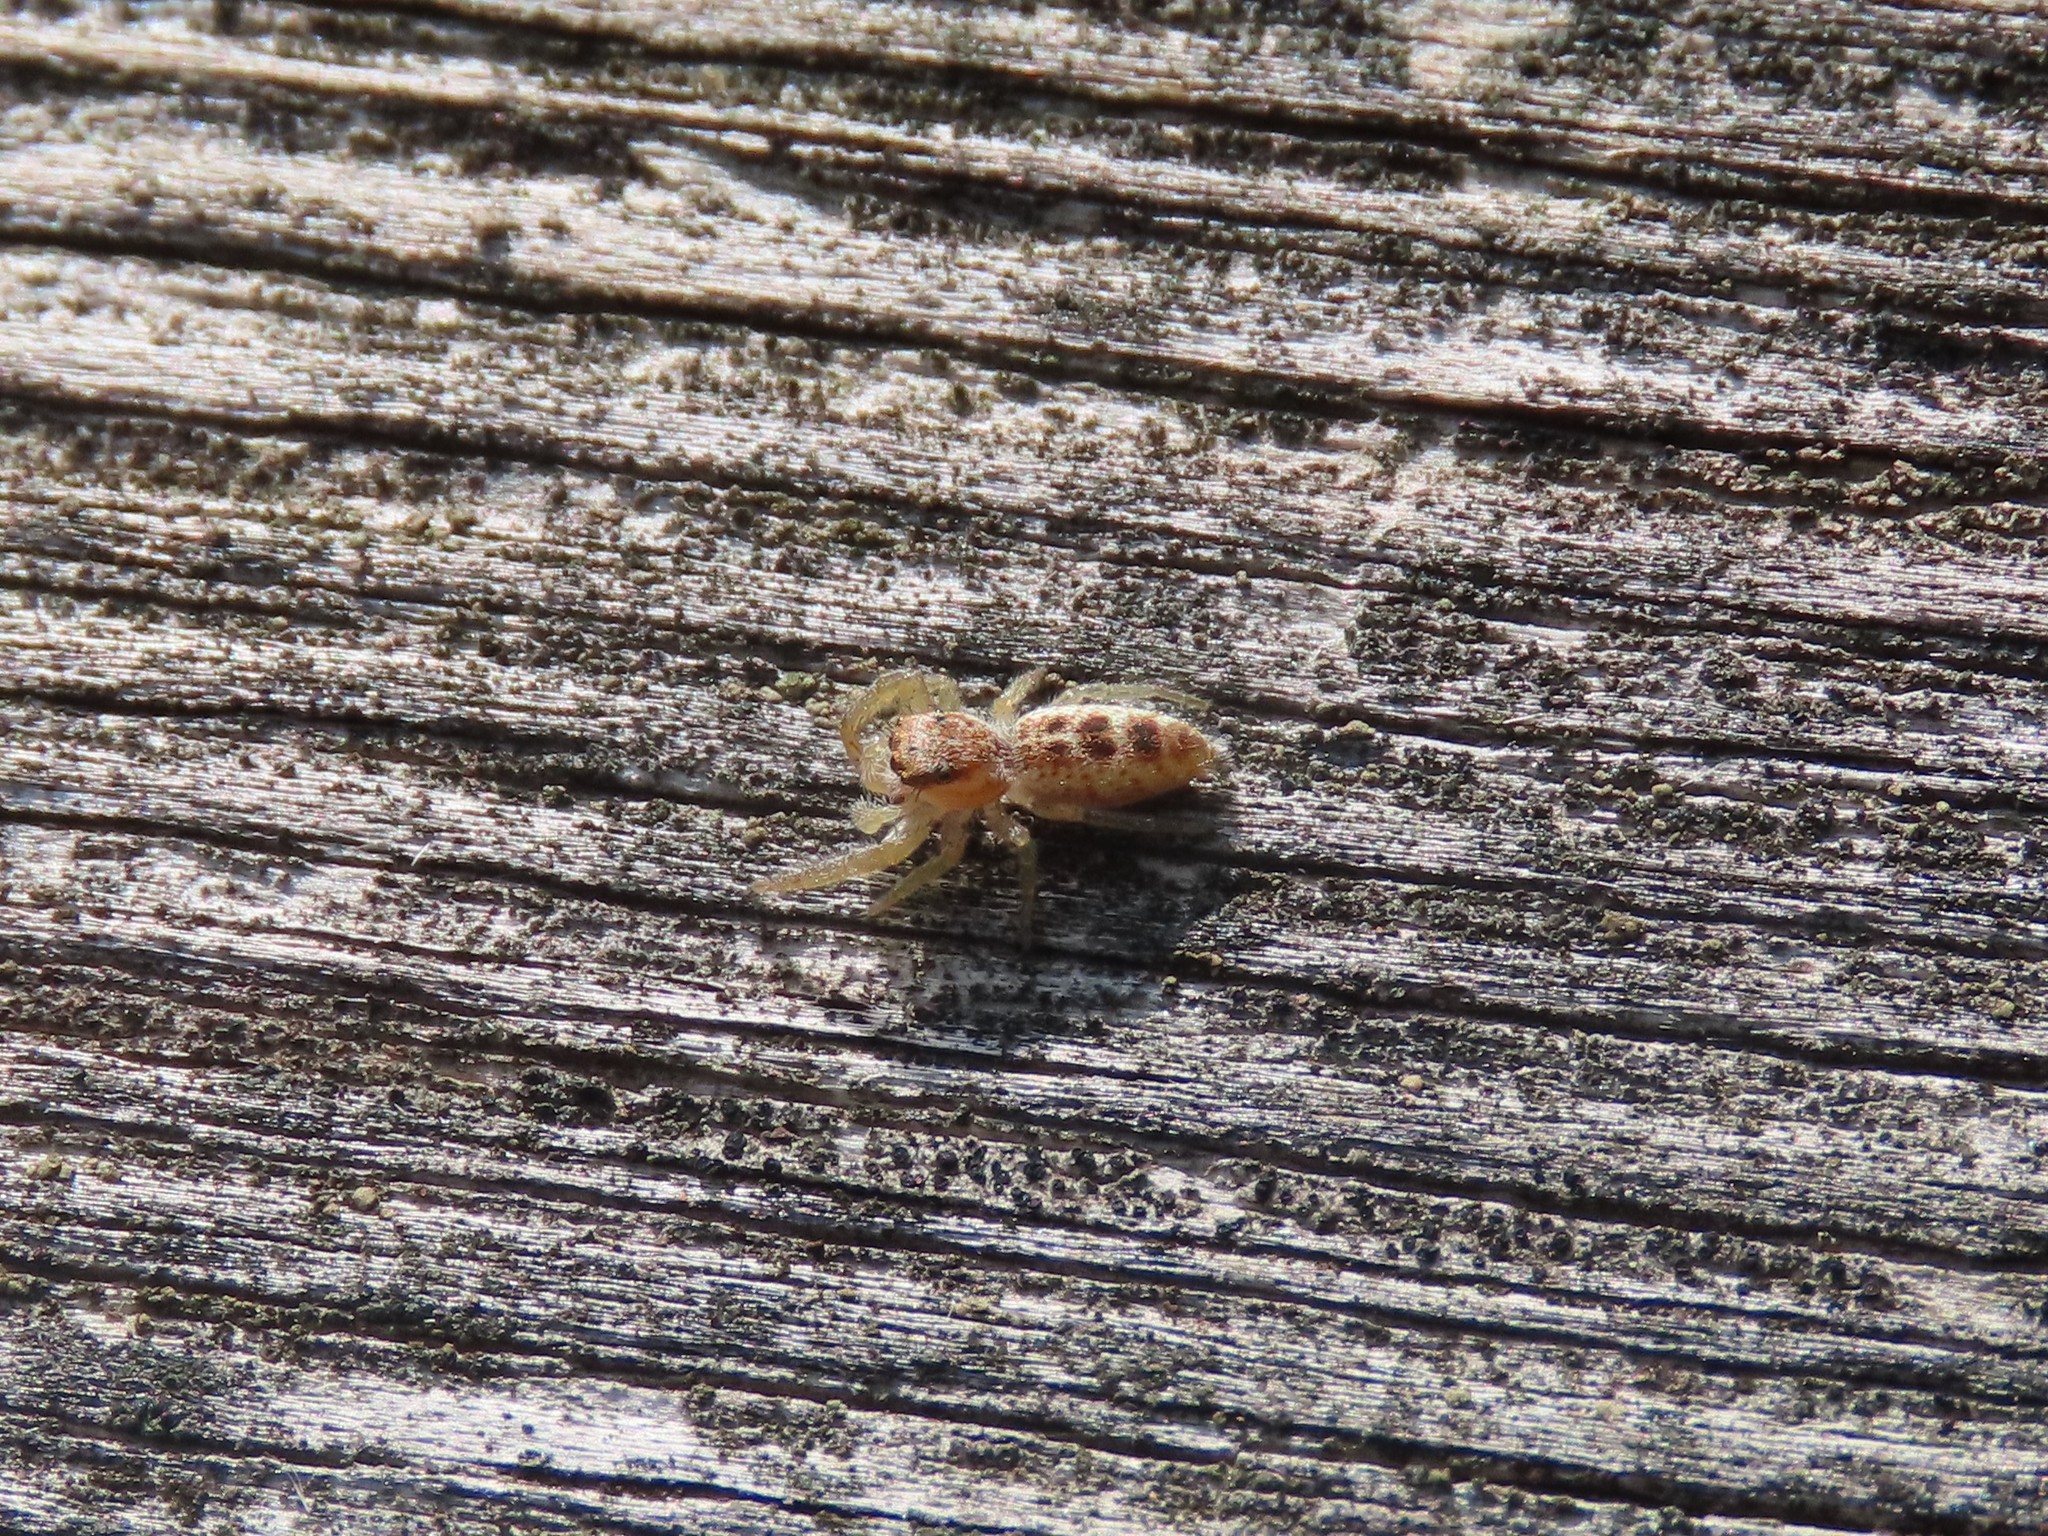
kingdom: Animalia
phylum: Arthropoda
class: Arachnida
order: Araneae
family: Salticidae
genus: Hentzia
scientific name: Hentzia mitrata
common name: White-jawed jumping spider
